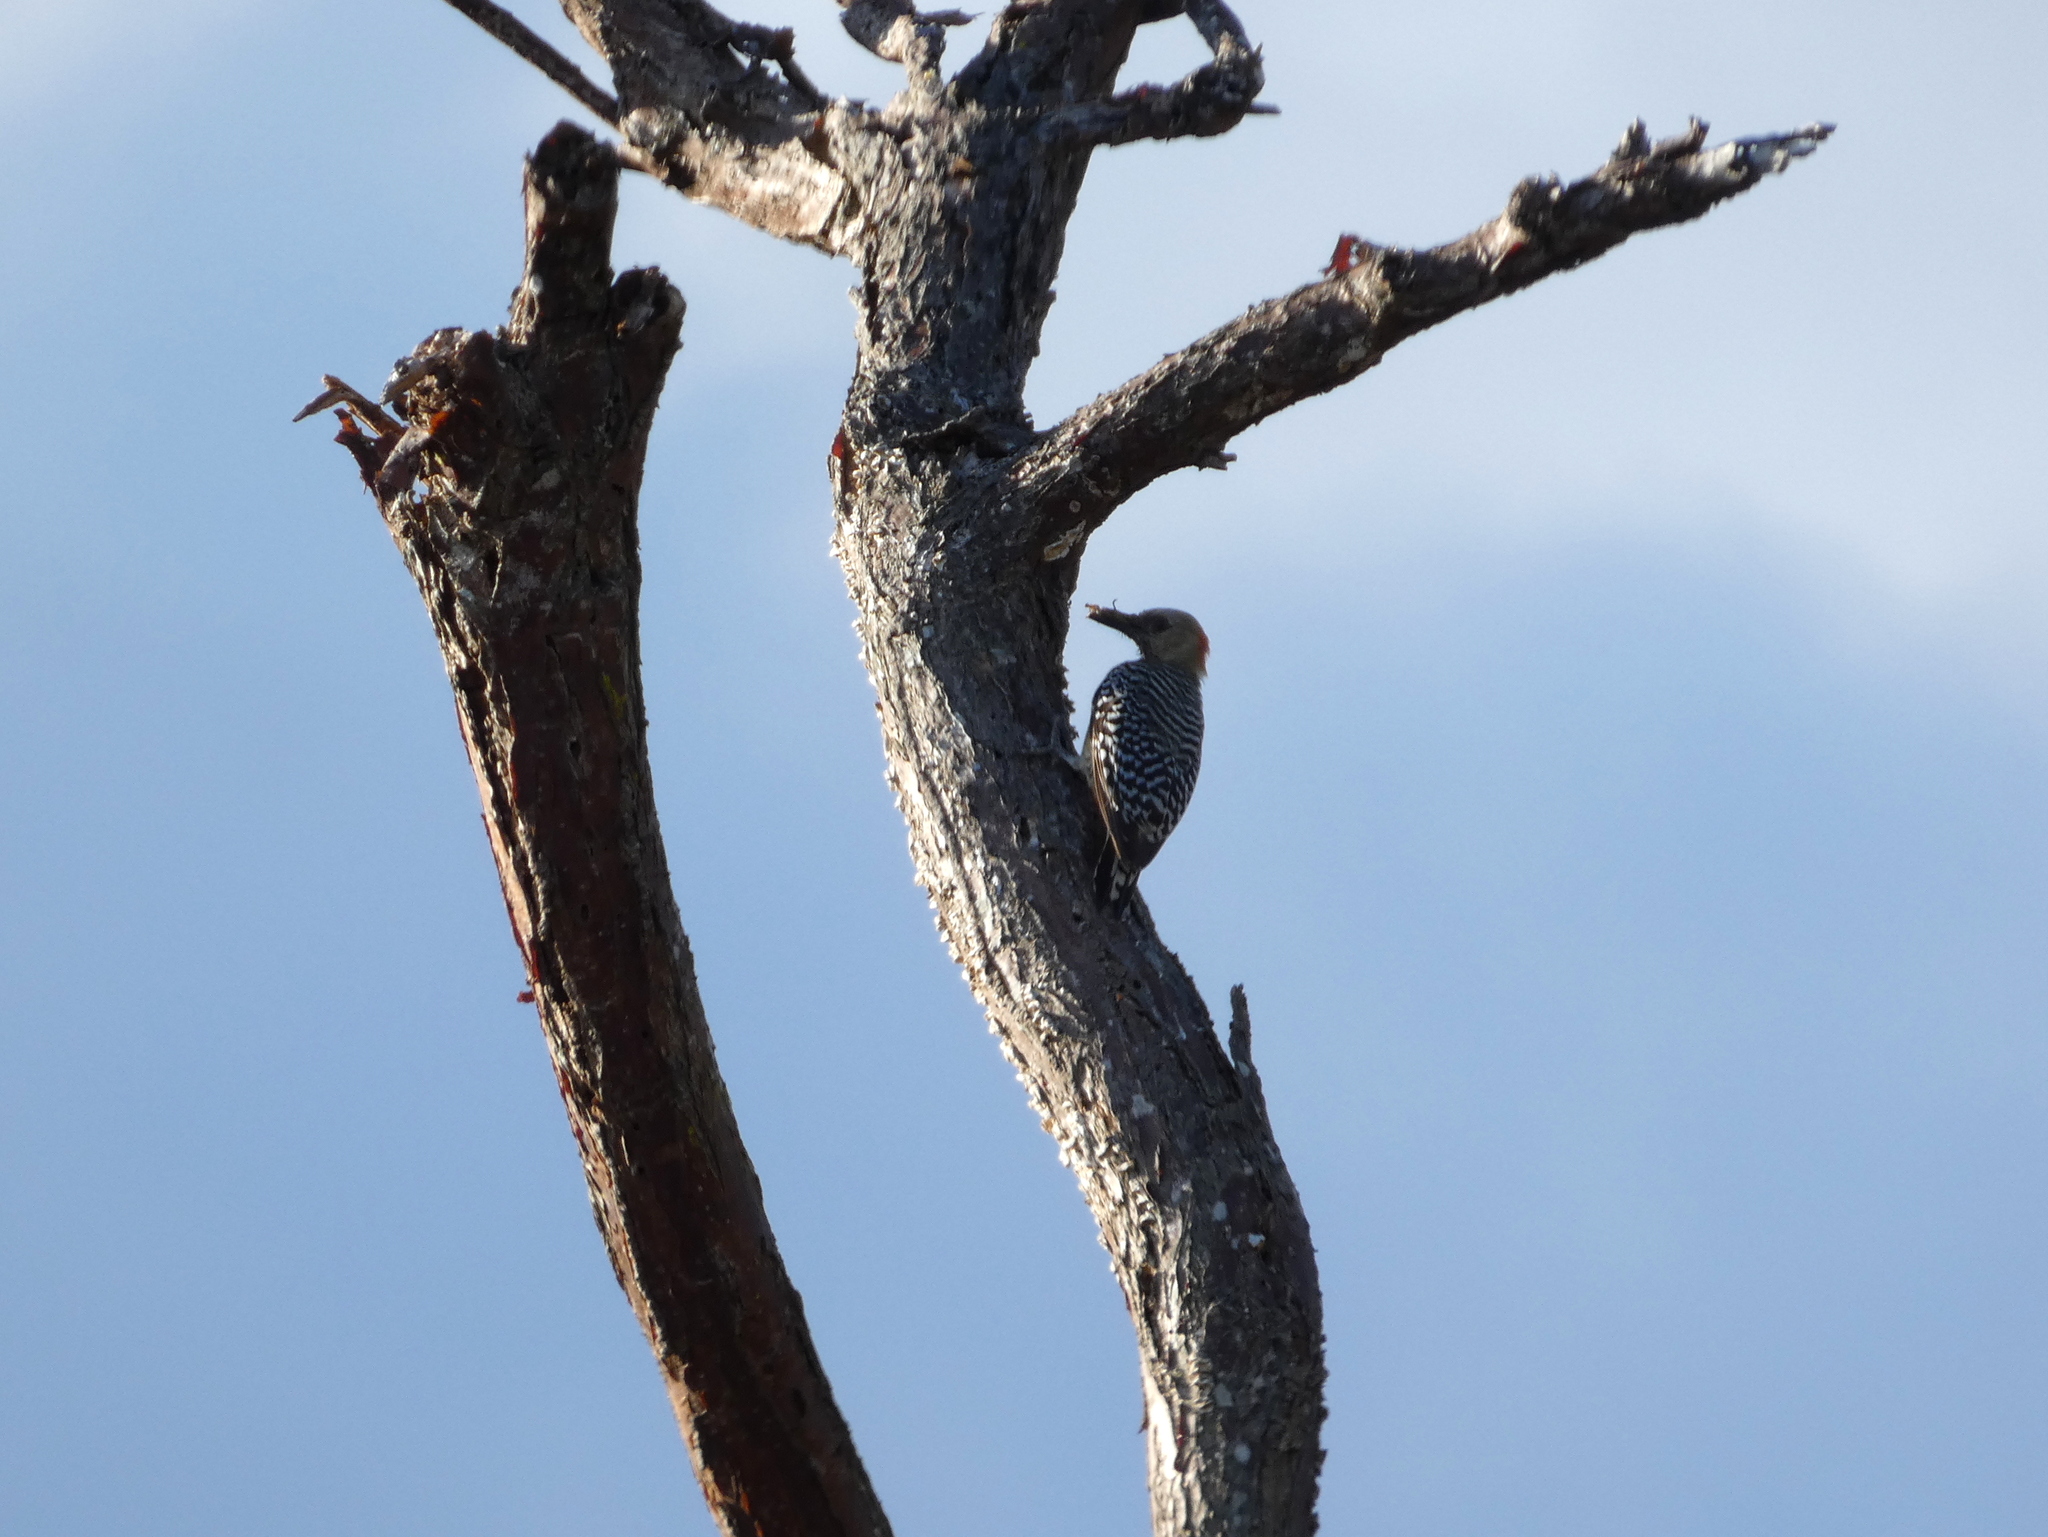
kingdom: Animalia
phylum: Chordata
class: Aves
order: Piciformes
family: Picidae
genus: Melanerpes
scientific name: Melanerpes rubricapillus
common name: Red-crowned woodpecker
